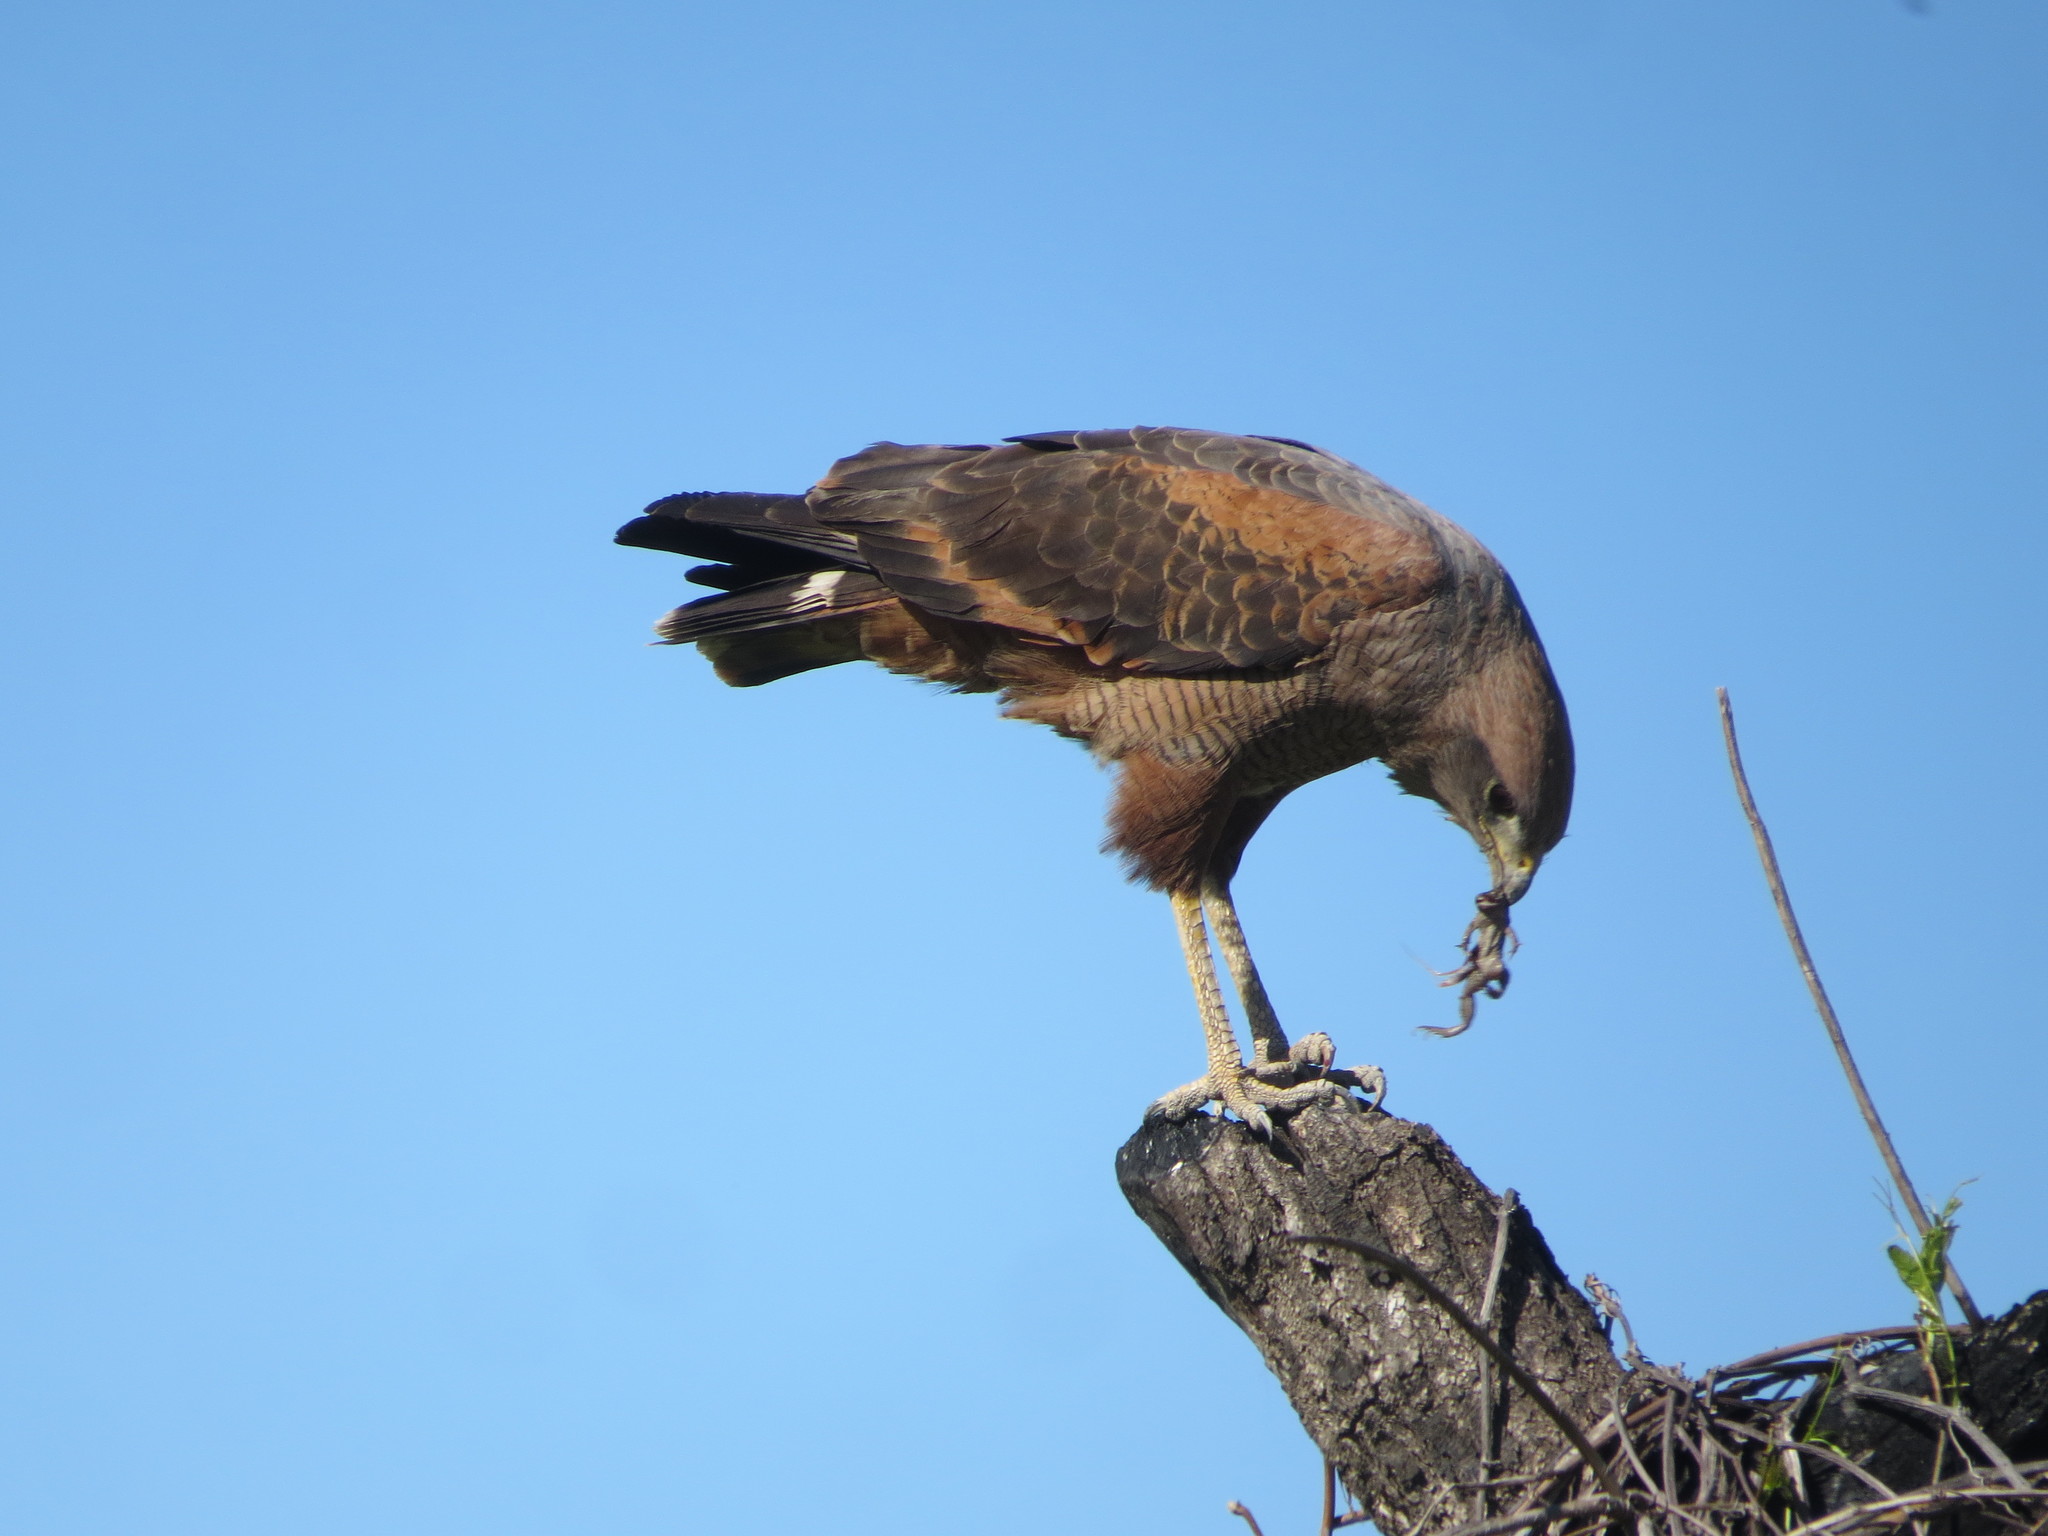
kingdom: Animalia
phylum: Chordata
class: Aves
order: Accipitriformes
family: Accipitridae
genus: Buteogallus
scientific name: Buteogallus meridionalis
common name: Savanna hawk
